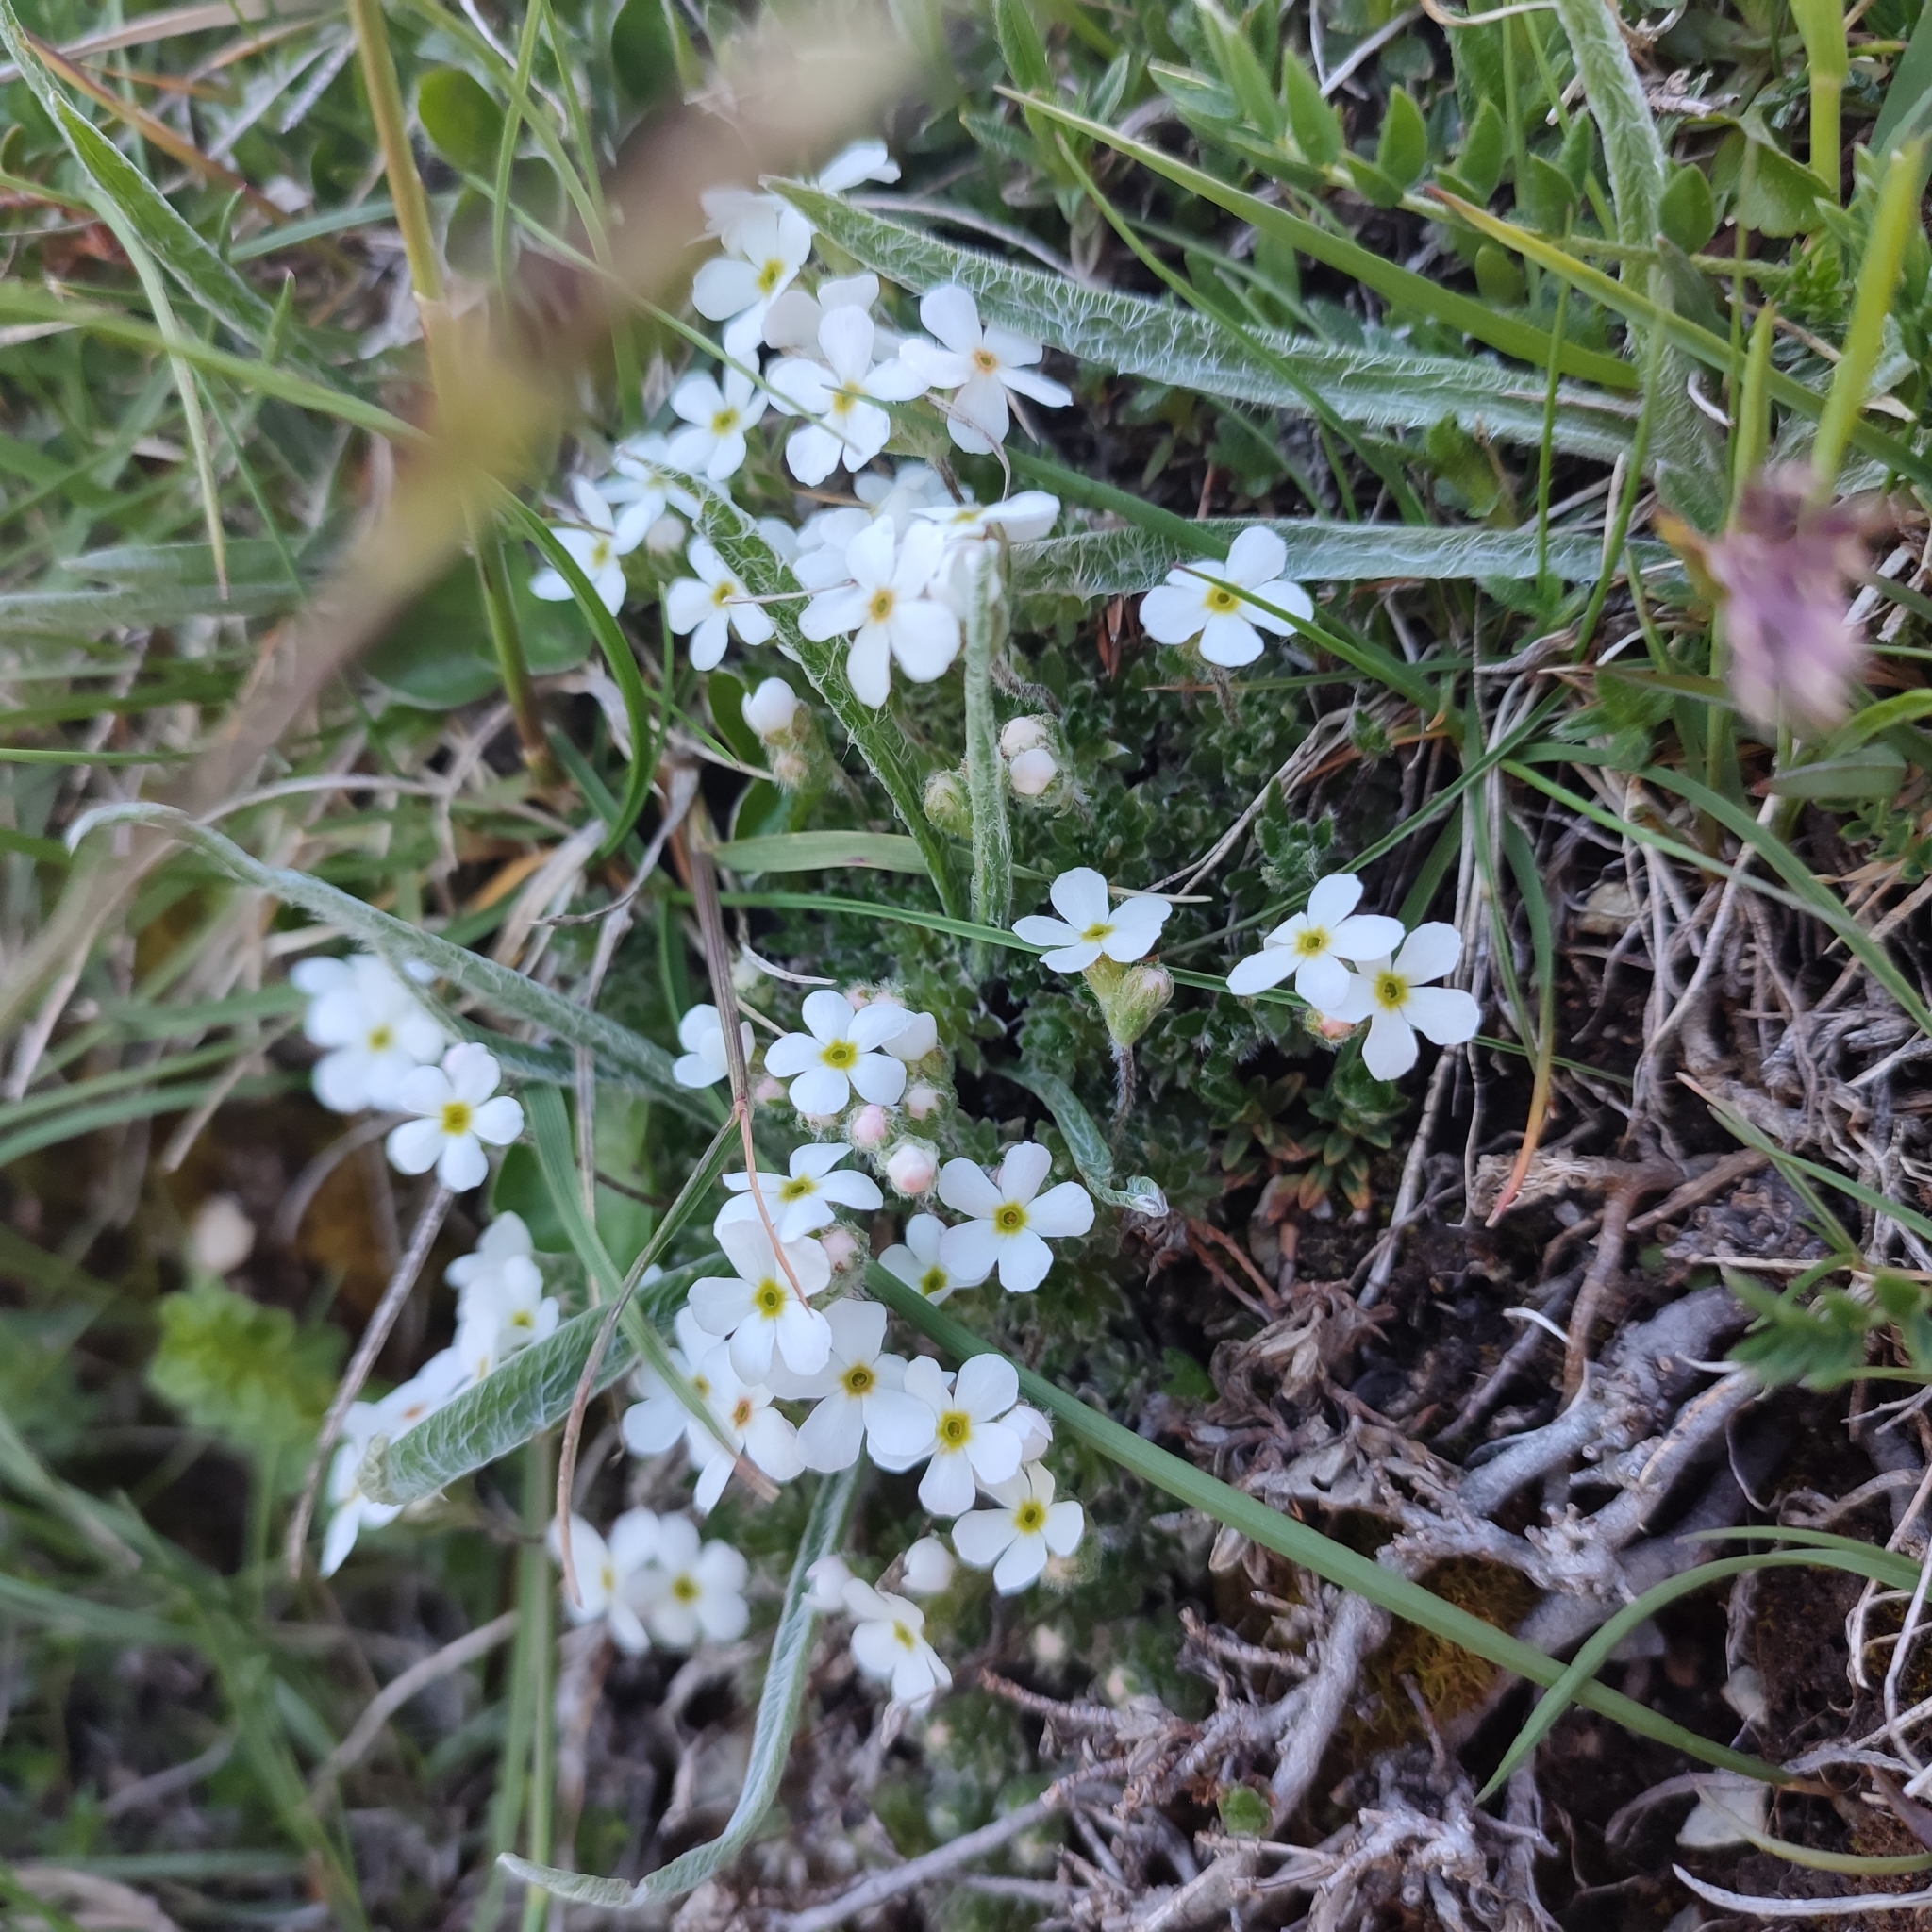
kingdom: Plantae
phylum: Tracheophyta
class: Magnoliopsida
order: Ericales
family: Primulaceae
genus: Androsace
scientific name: Androsace villosa
